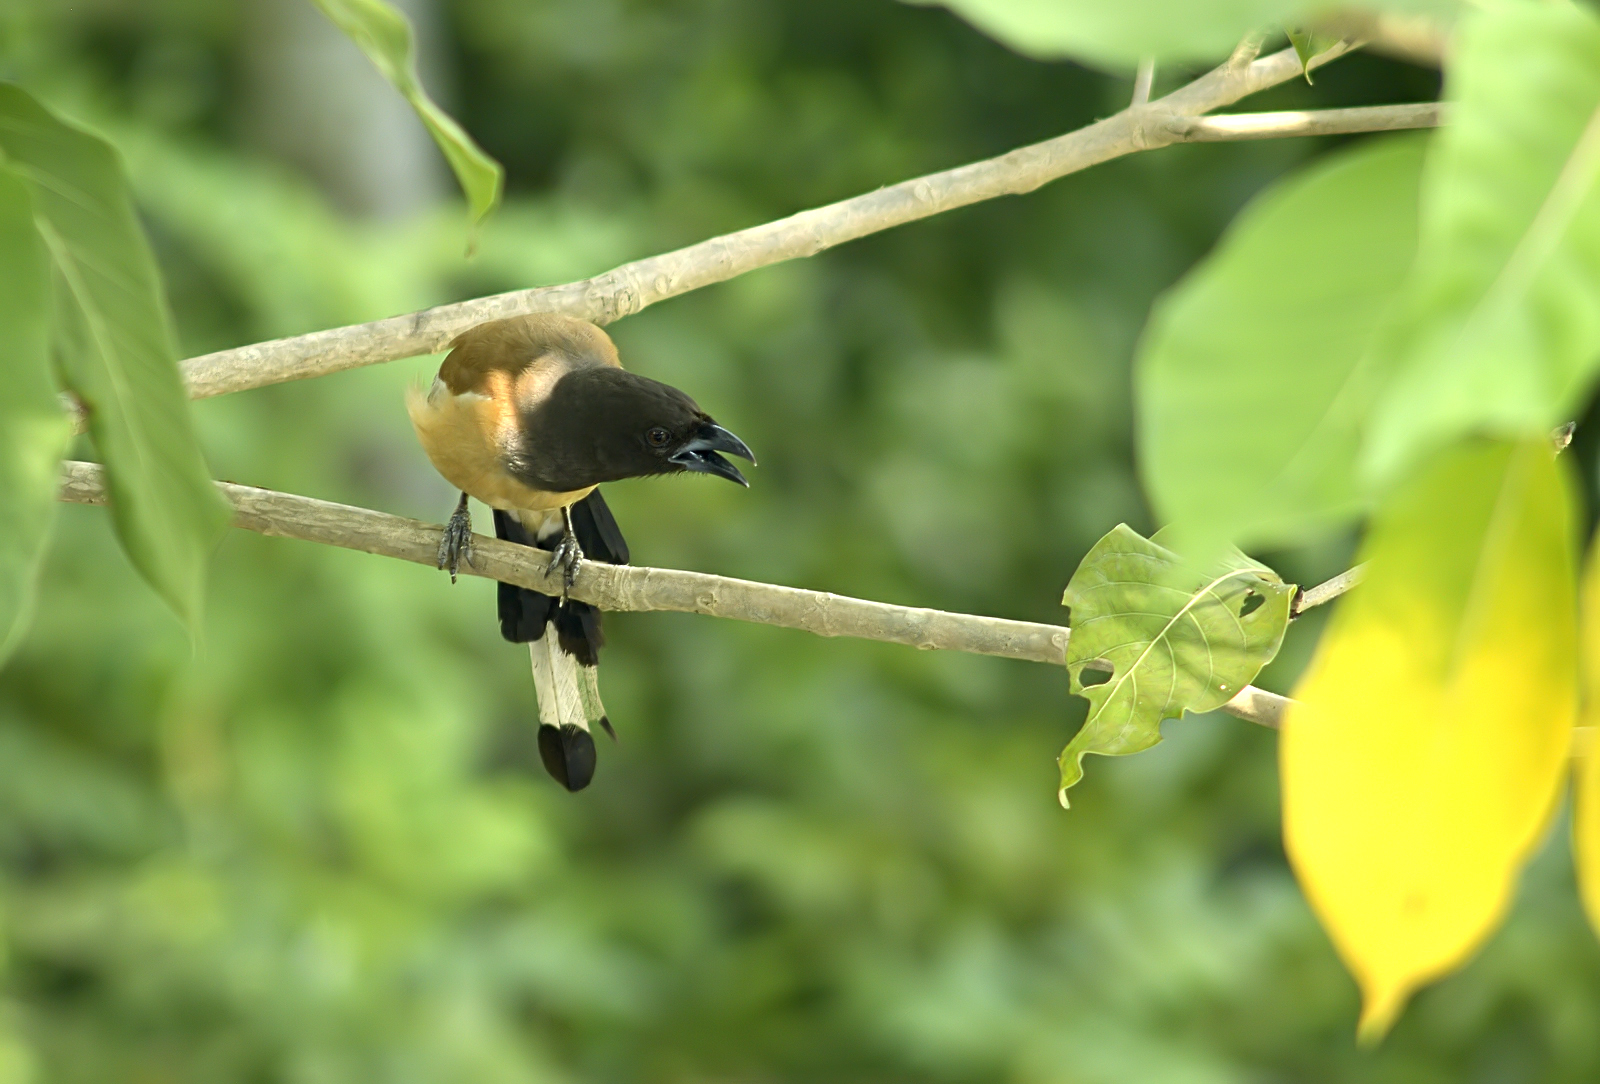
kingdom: Animalia
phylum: Chordata
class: Aves
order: Passeriformes
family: Corvidae
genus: Dendrocitta
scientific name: Dendrocitta vagabunda
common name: Rufous treepie
